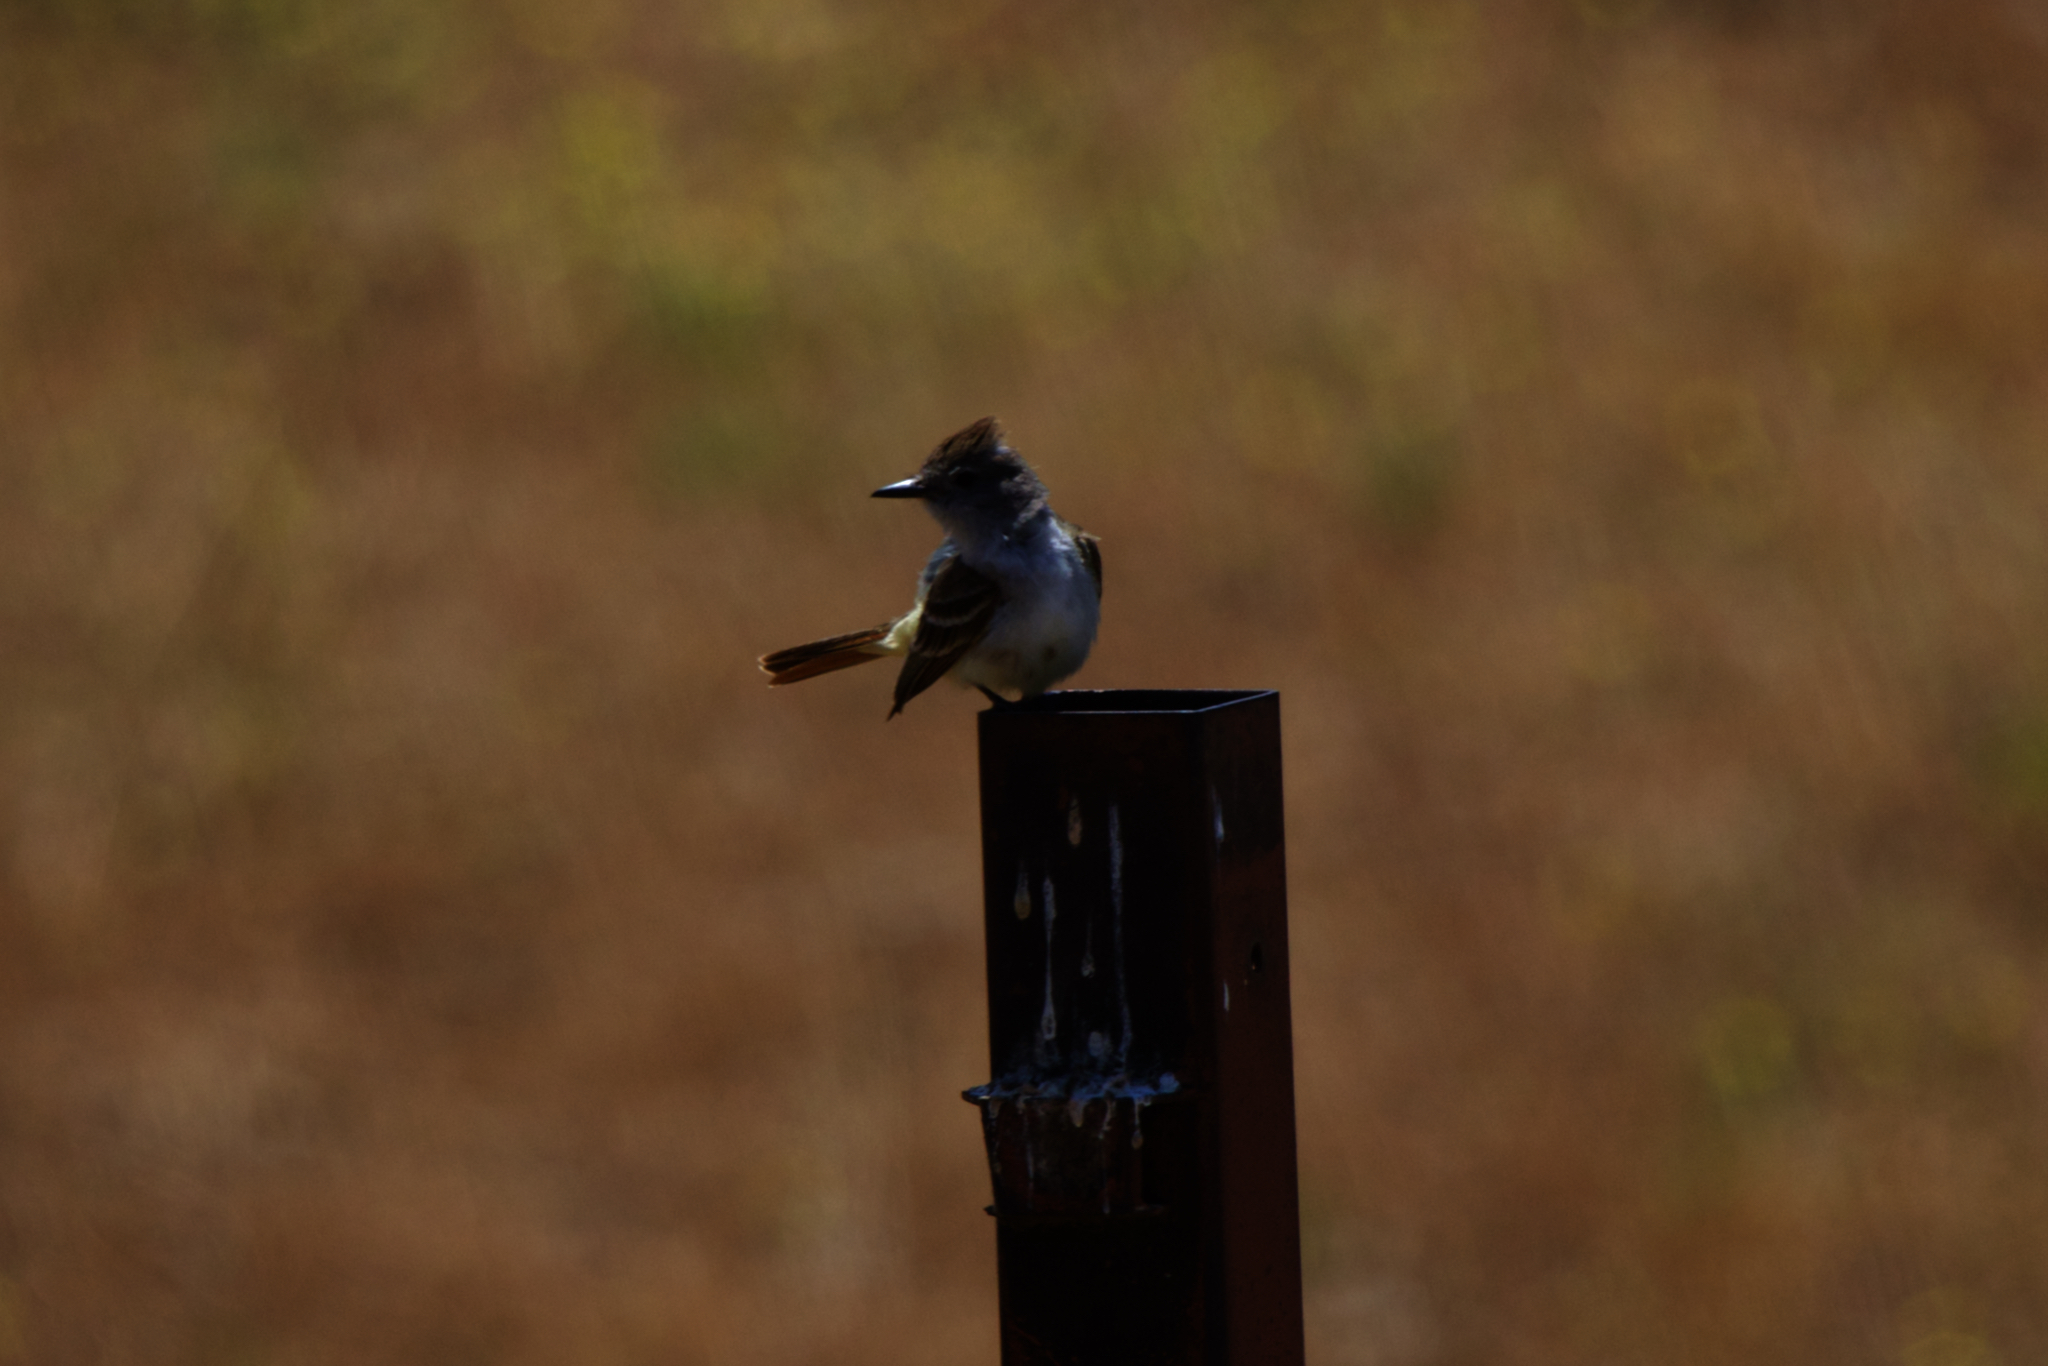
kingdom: Animalia
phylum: Chordata
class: Aves
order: Passeriformes
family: Tyrannidae
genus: Myiarchus
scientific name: Myiarchus cinerascens
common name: Ash-throated flycatcher
